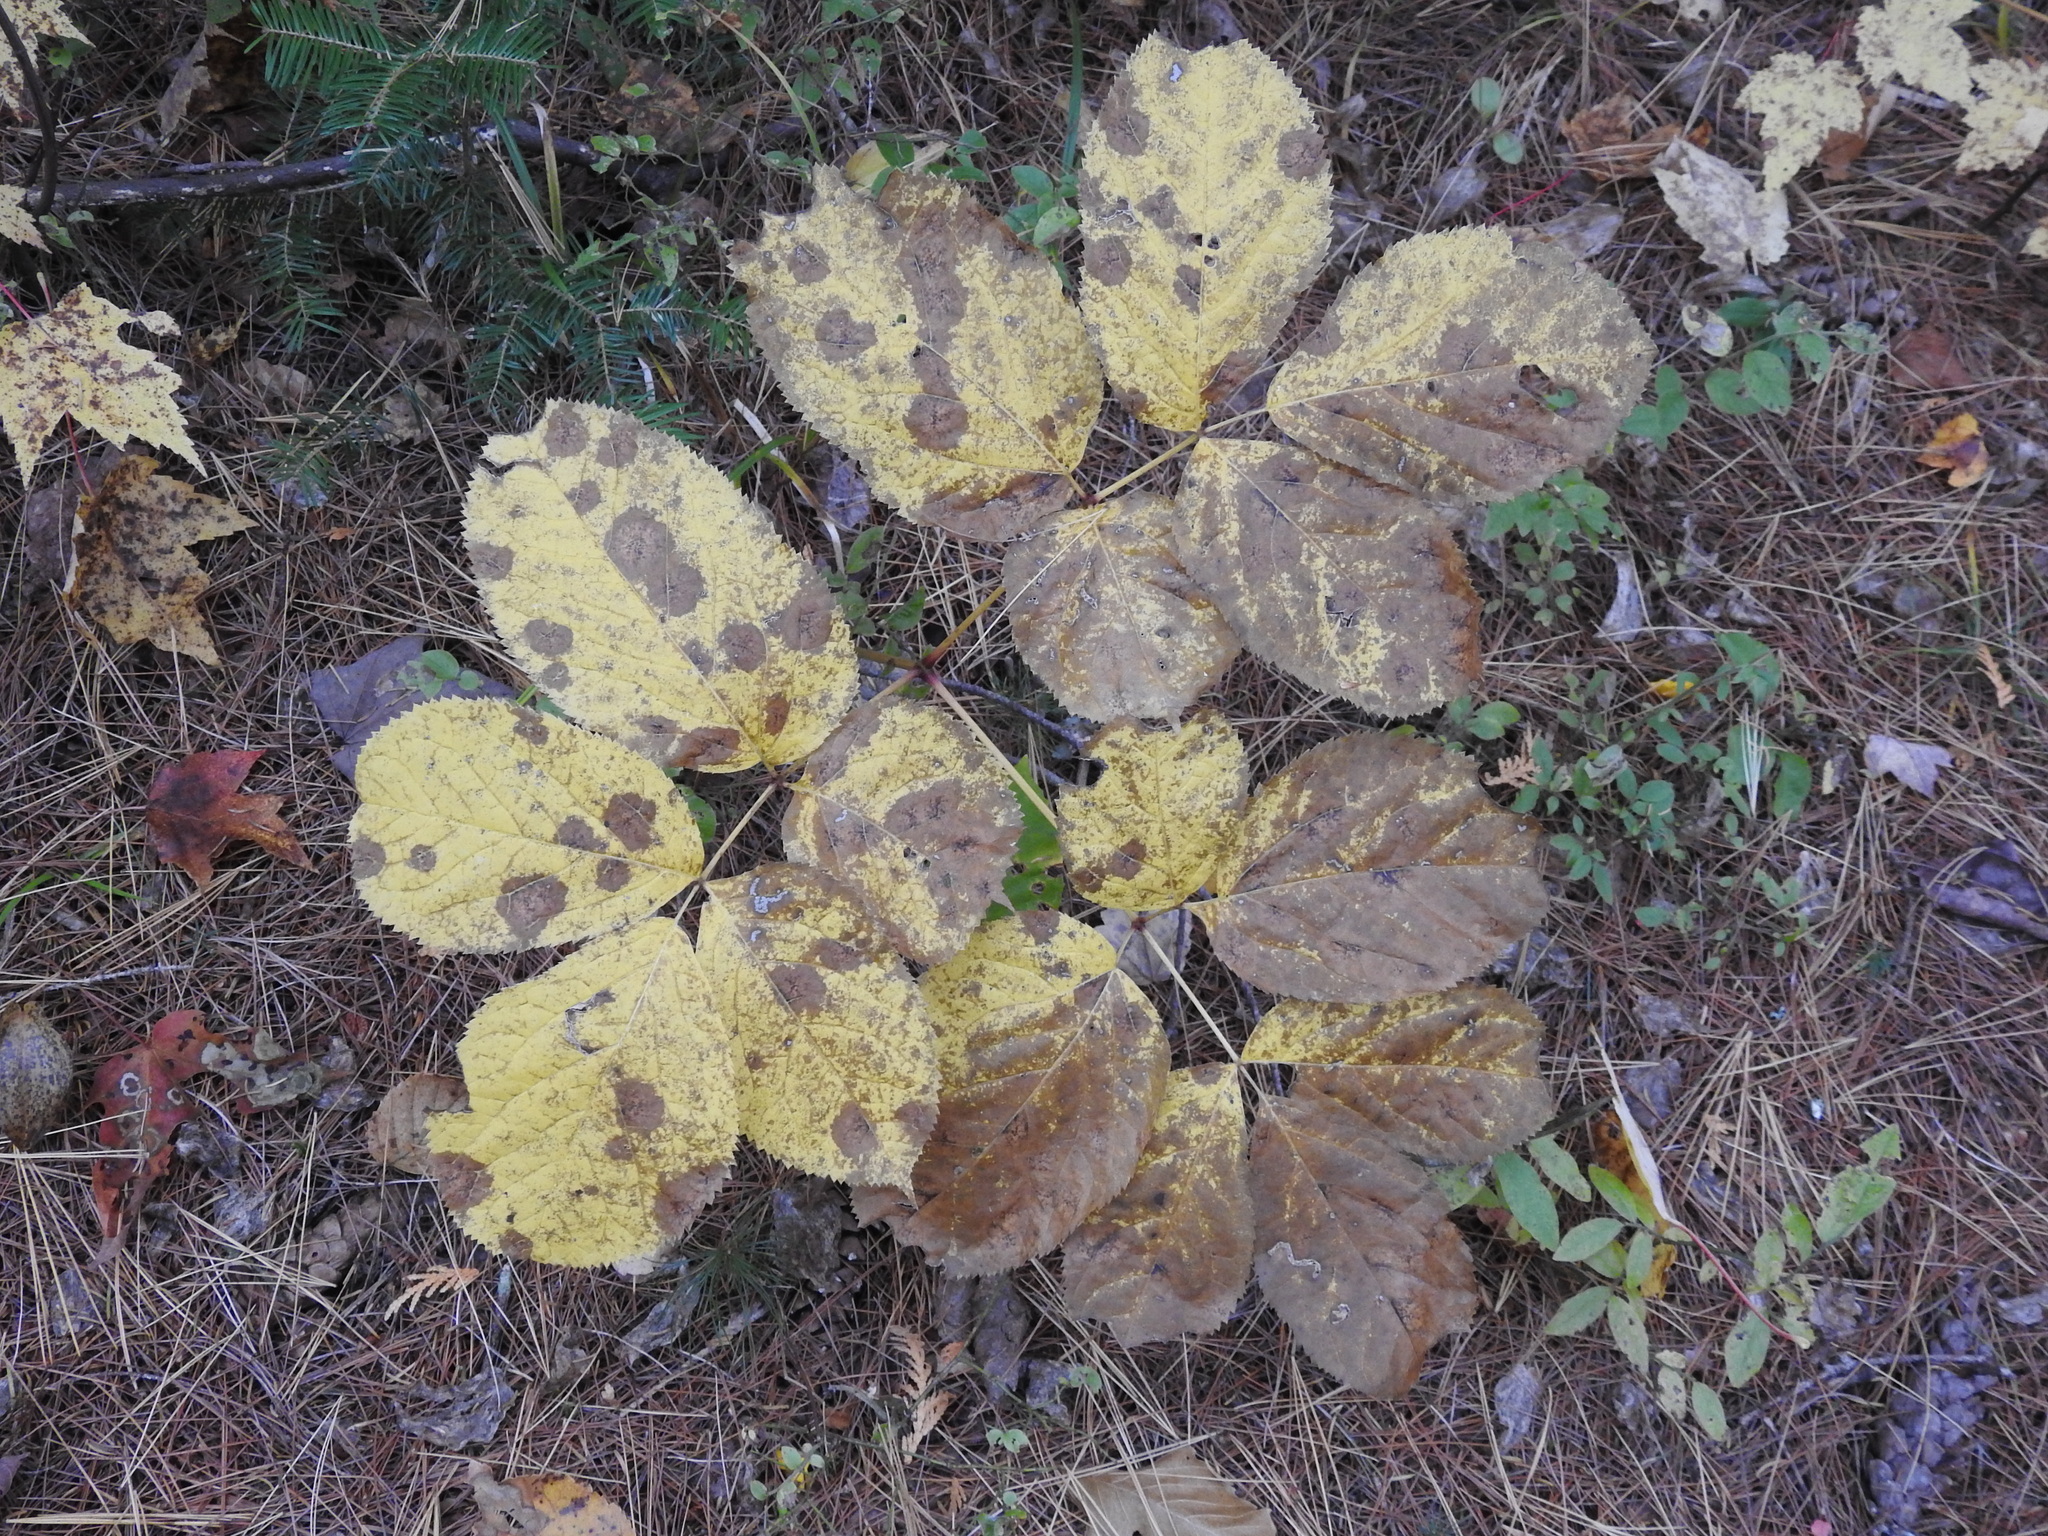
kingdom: Plantae
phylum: Tracheophyta
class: Magnoliopsida
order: Apiales
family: Araliaceae
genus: Aralia
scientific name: Aralia nudicaulis
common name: Wild sarsaparilla
